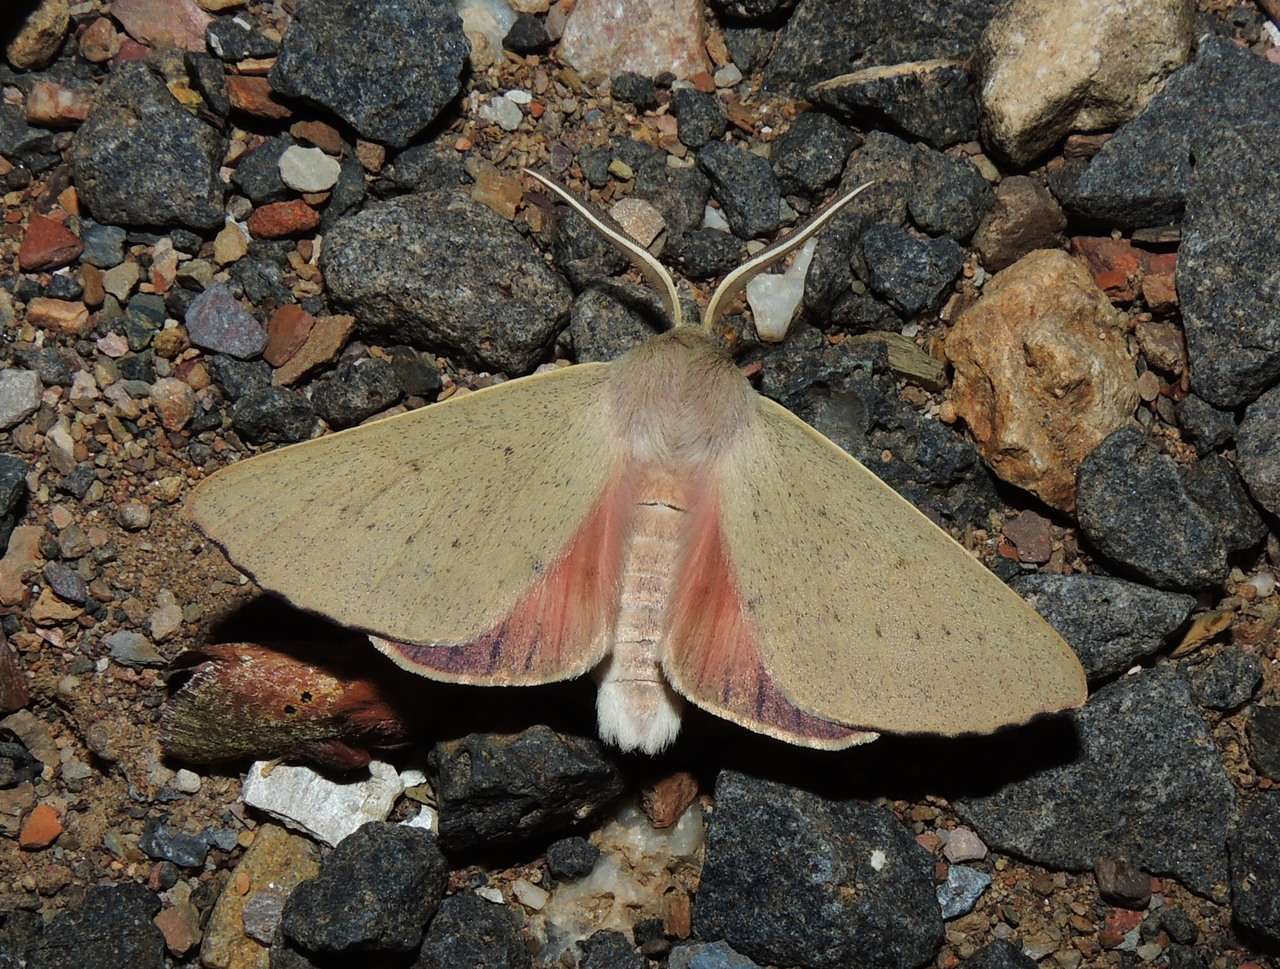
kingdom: Animalia
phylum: Arthropoda
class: Insecta
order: Lepidoptera
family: Geometridae
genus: Arhodia
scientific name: Arhodia lasiocamparia
